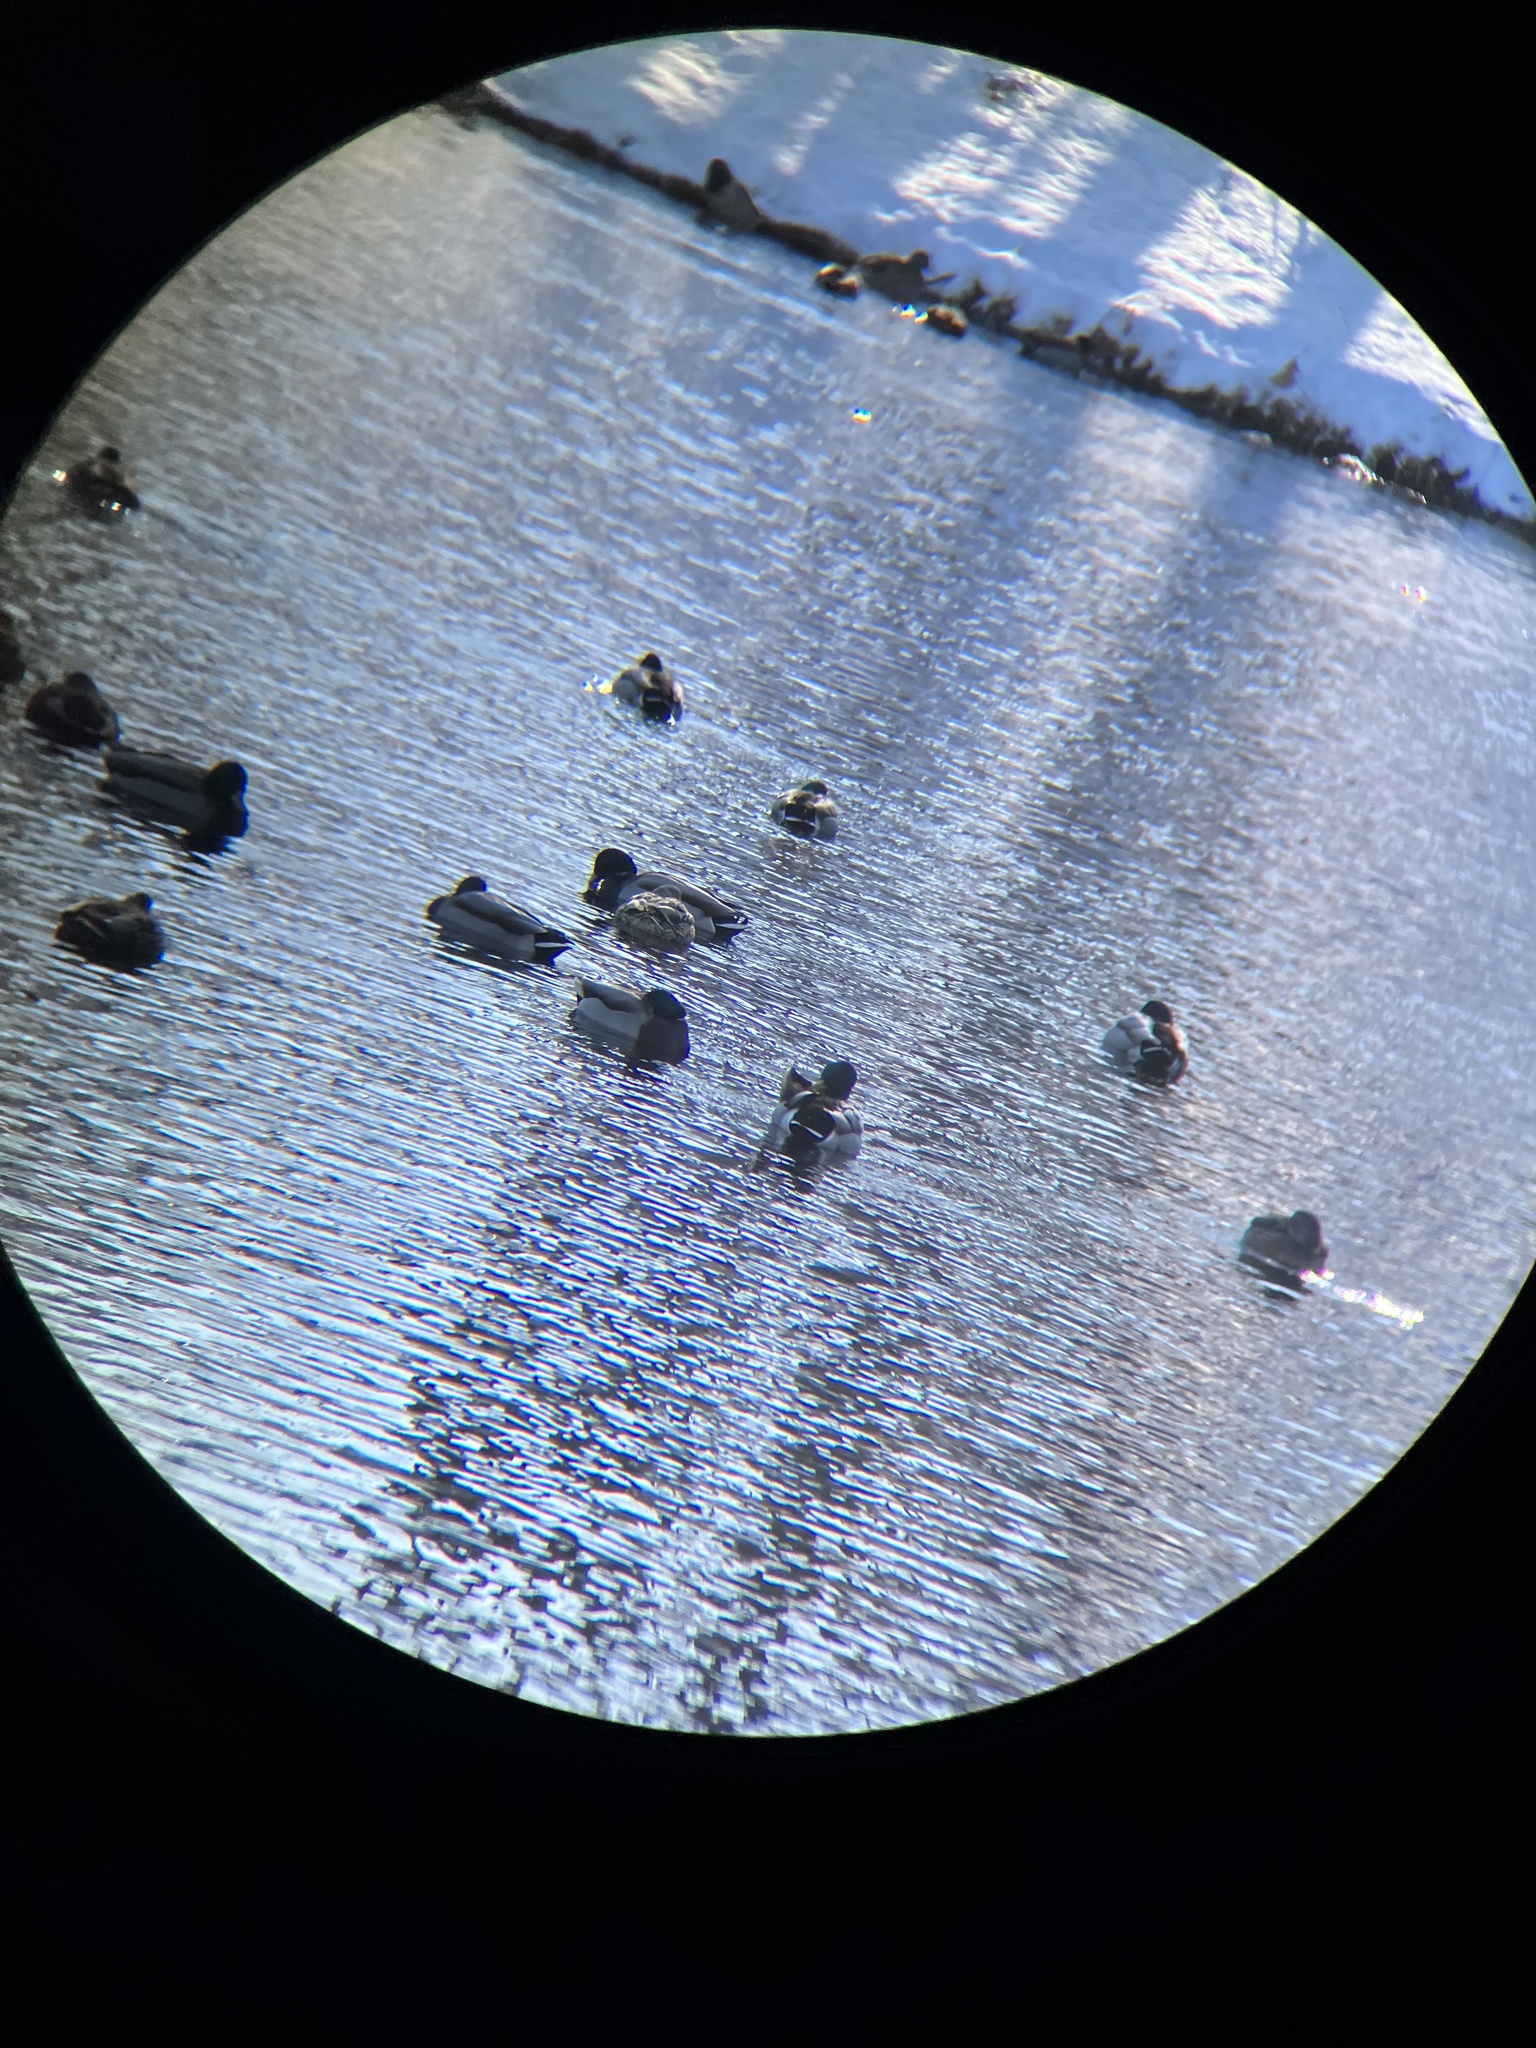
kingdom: Animalia
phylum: Chordata
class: Aves
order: Anseriformes
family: Anatidae
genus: Anas
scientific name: Anas platyrhynchos
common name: Mallard
